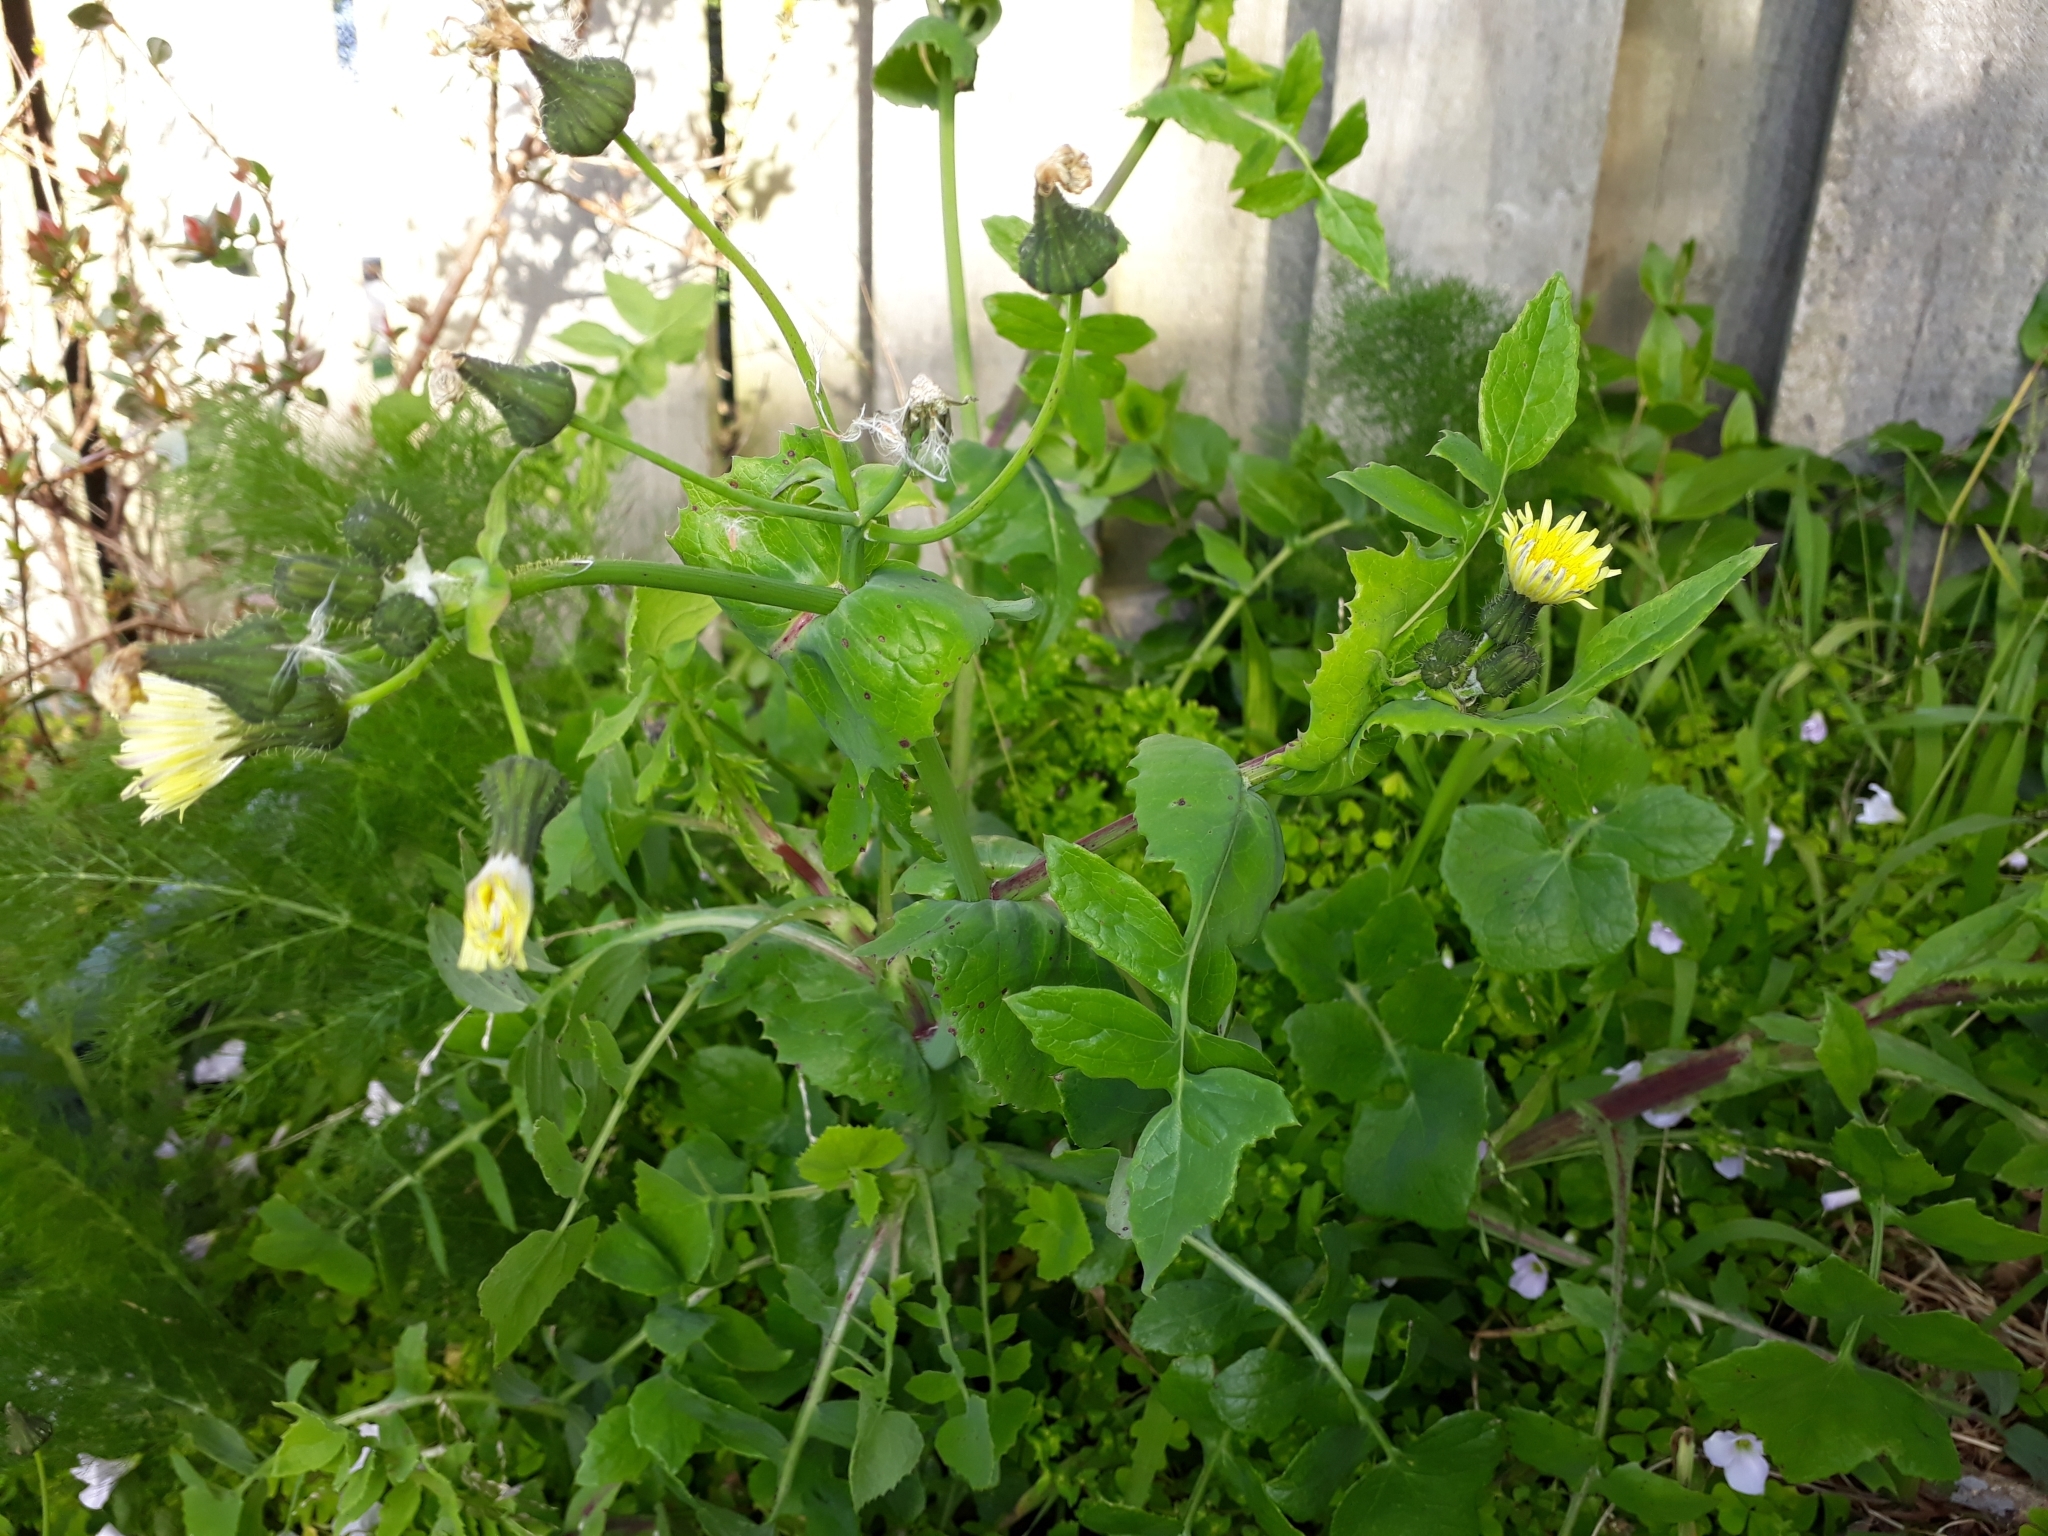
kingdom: Plantae
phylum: Tracheophyta
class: Magnoliopsida
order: Asterales
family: Asteraceae
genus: Sonchus
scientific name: Sonchus oleraceus
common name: Common sowthistle
